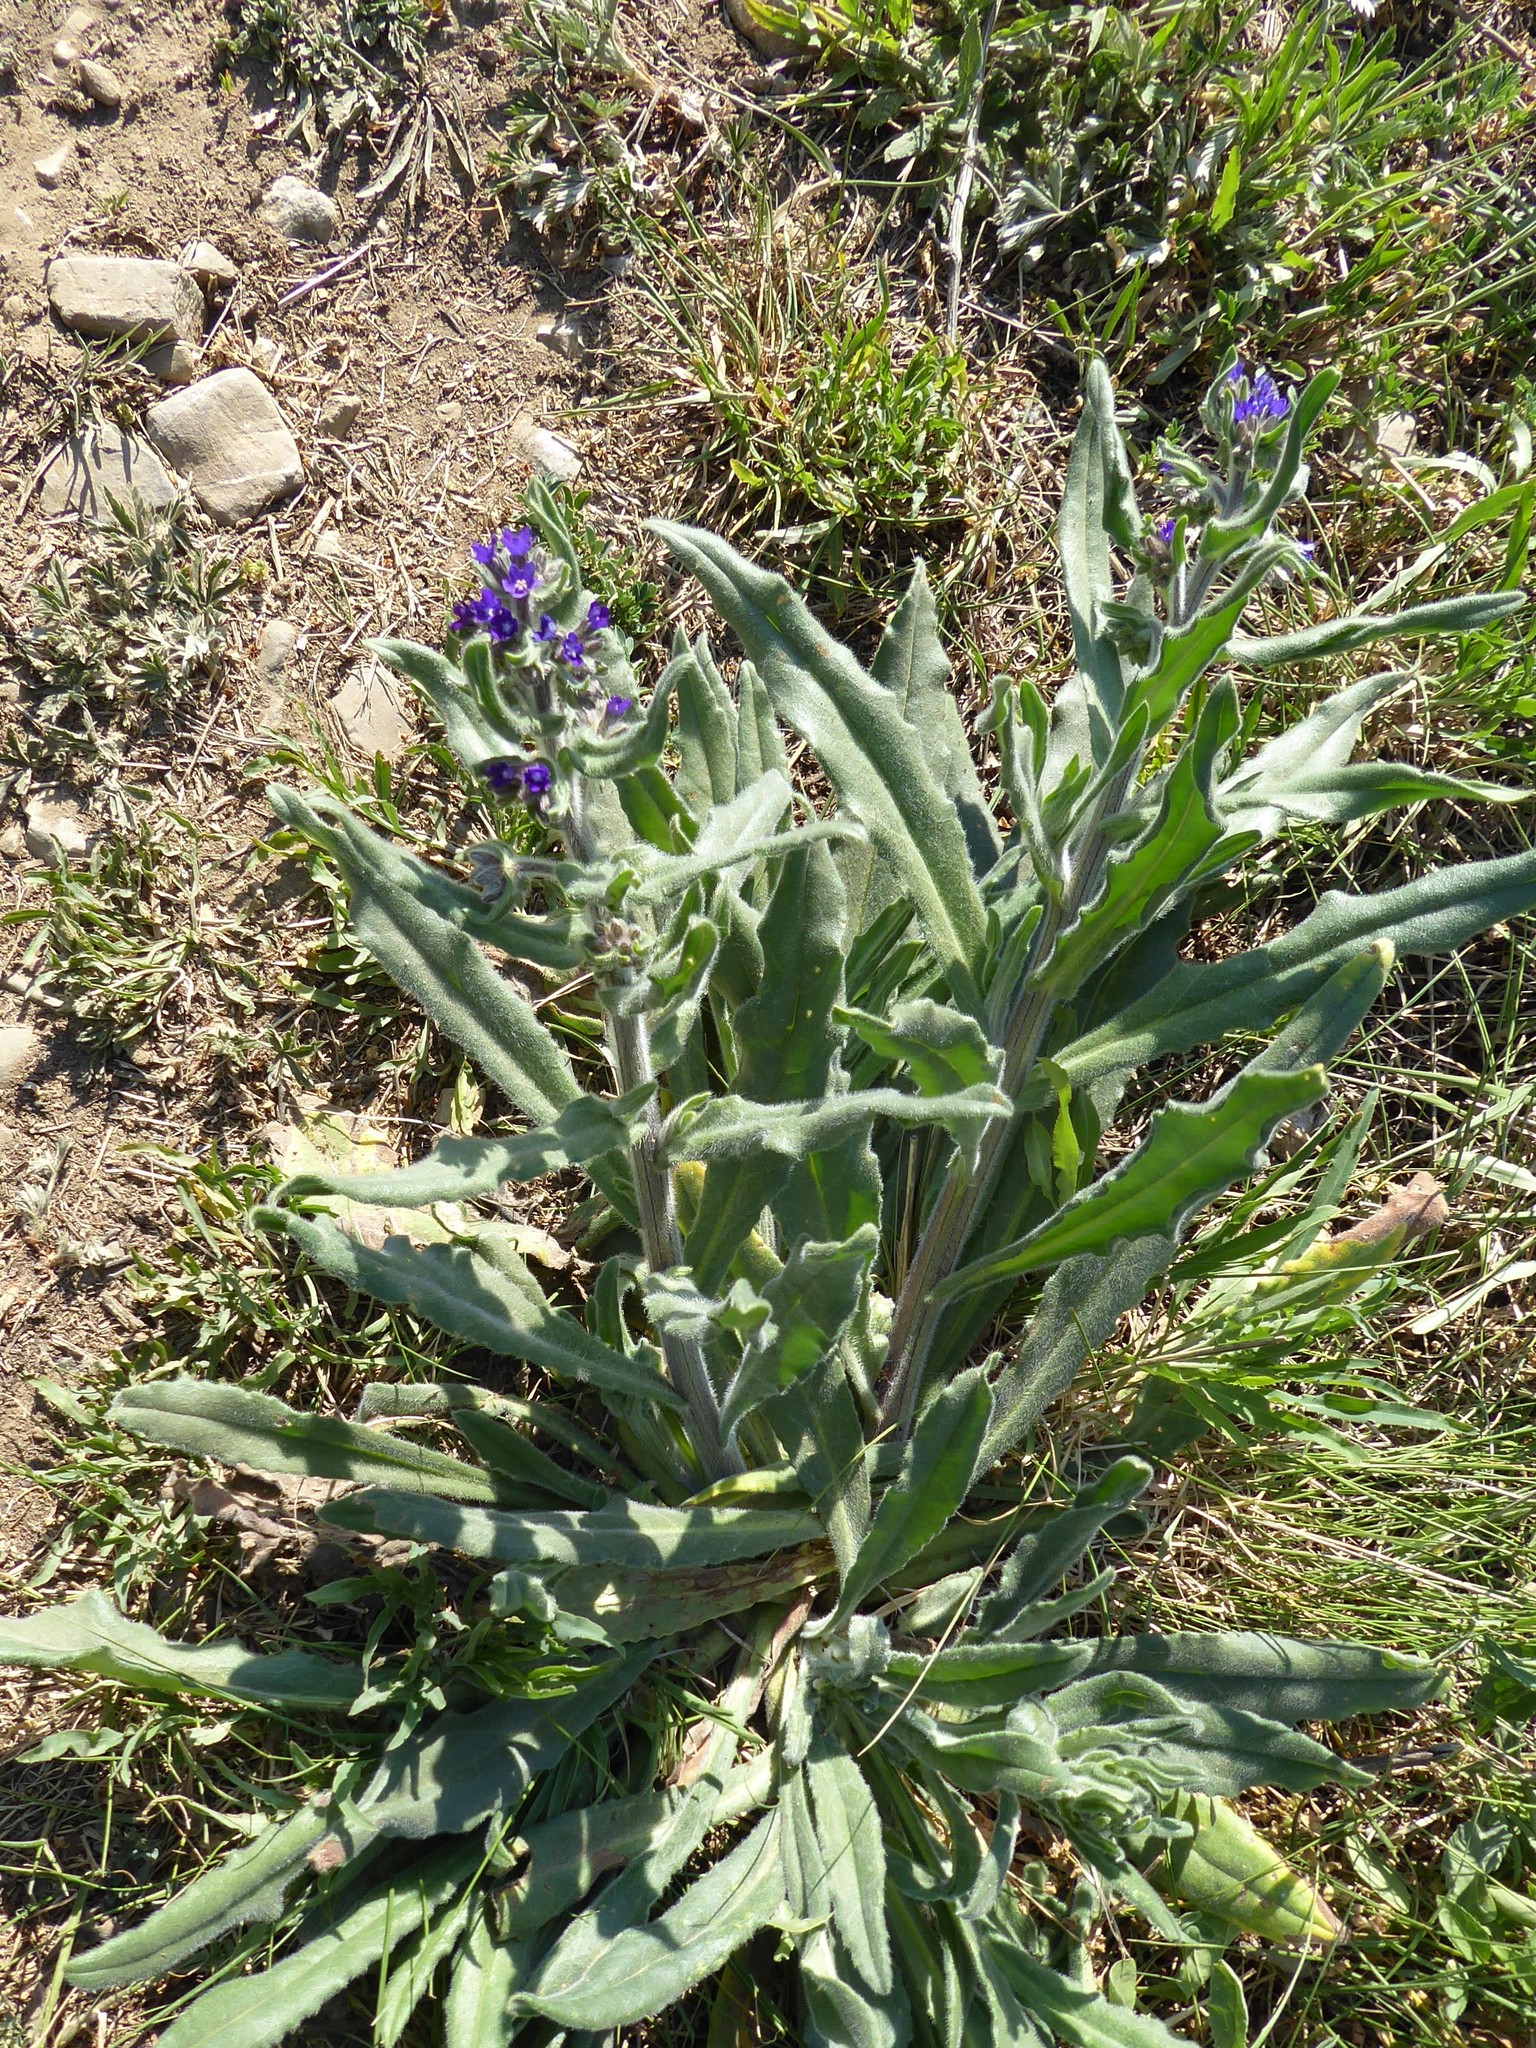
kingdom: Plantae
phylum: Tracheophyta
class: Magnoliopsida
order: Boraginales
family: Boraginaceae
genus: Anchusa
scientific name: Anchusa officinalis
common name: Alkanet
